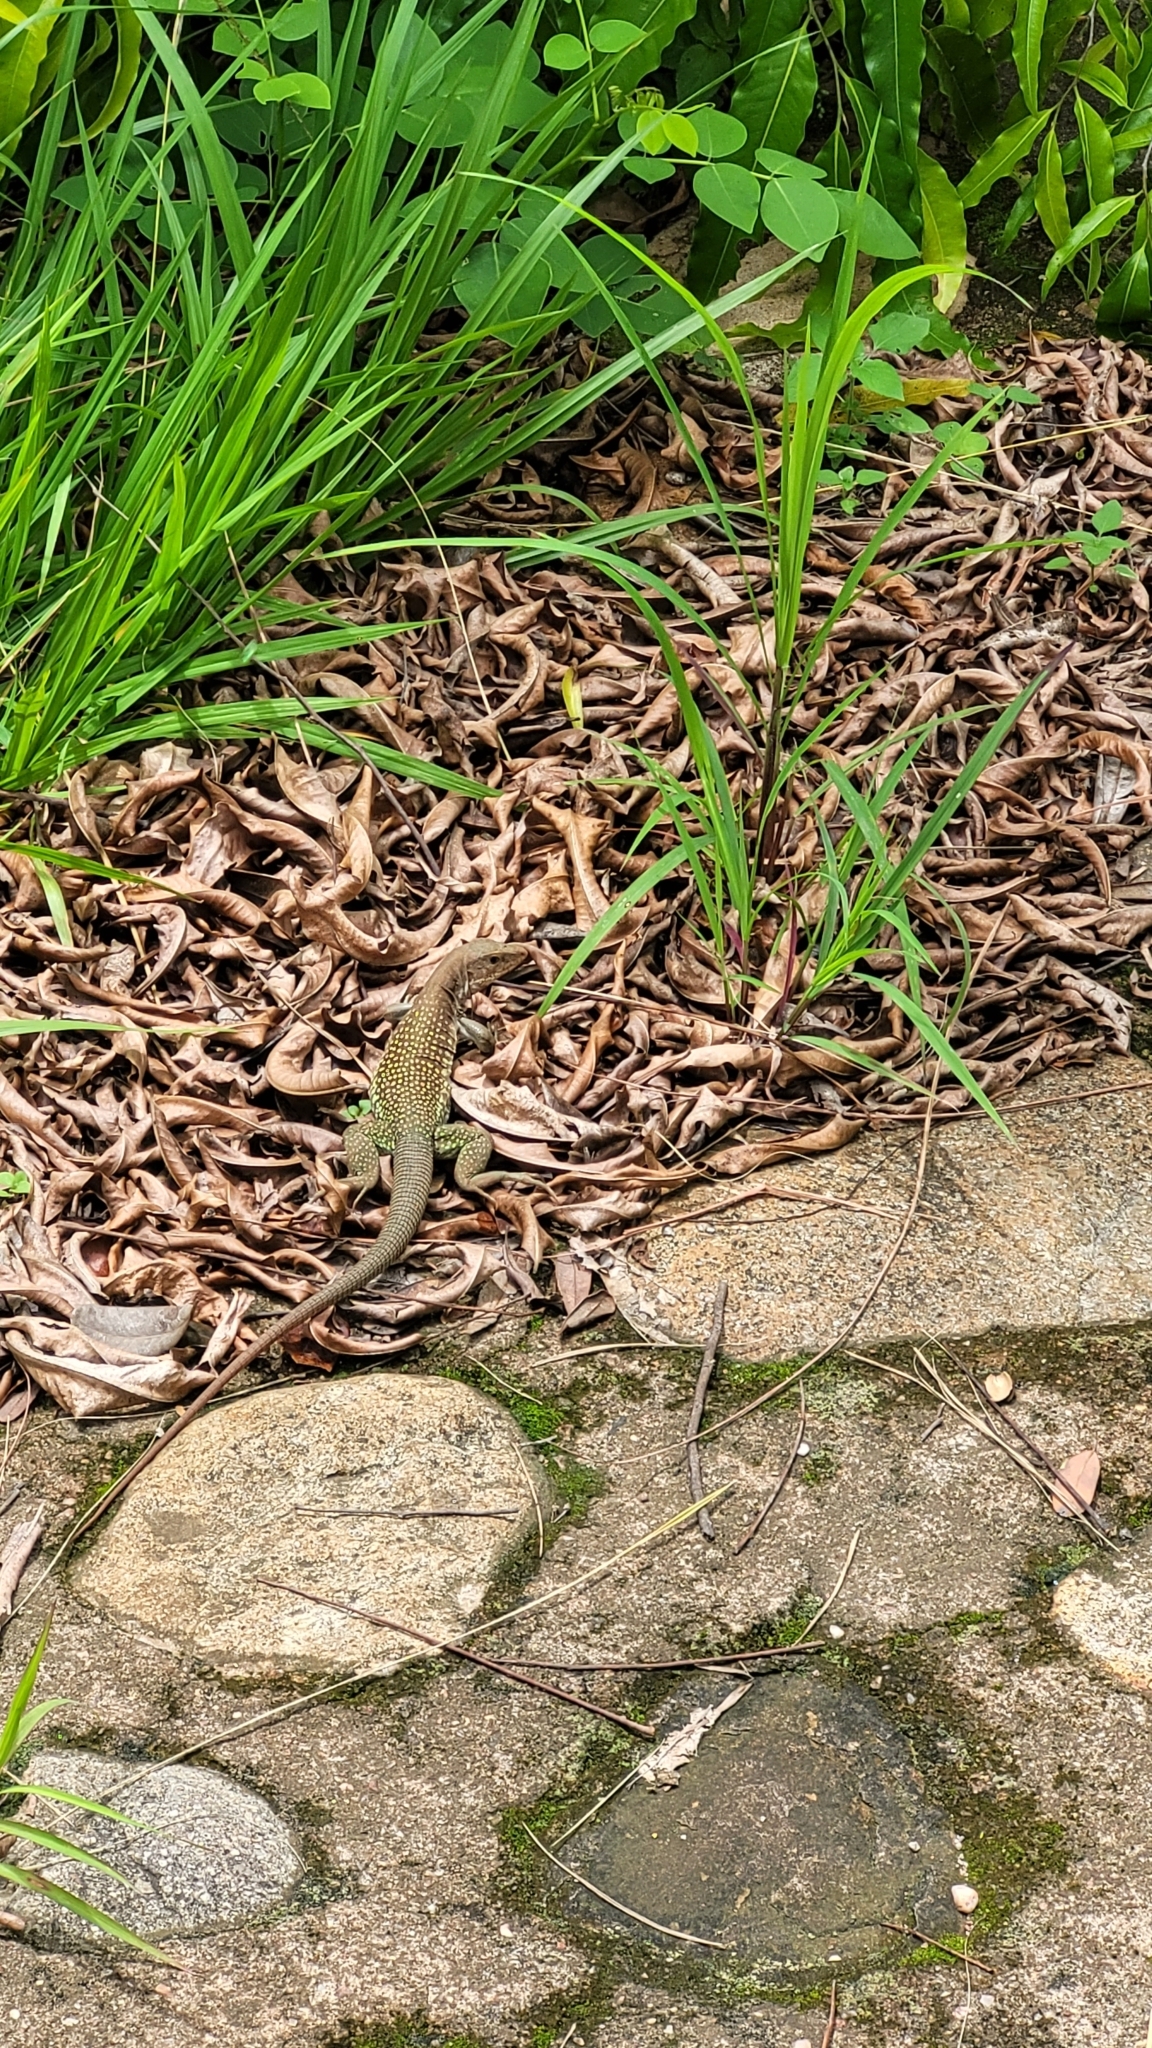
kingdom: Animalia
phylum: Chordata
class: Squamata
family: Teiidae
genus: Aspidoscelis
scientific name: Aspidoscelis motaguae
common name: Giant whiptail
